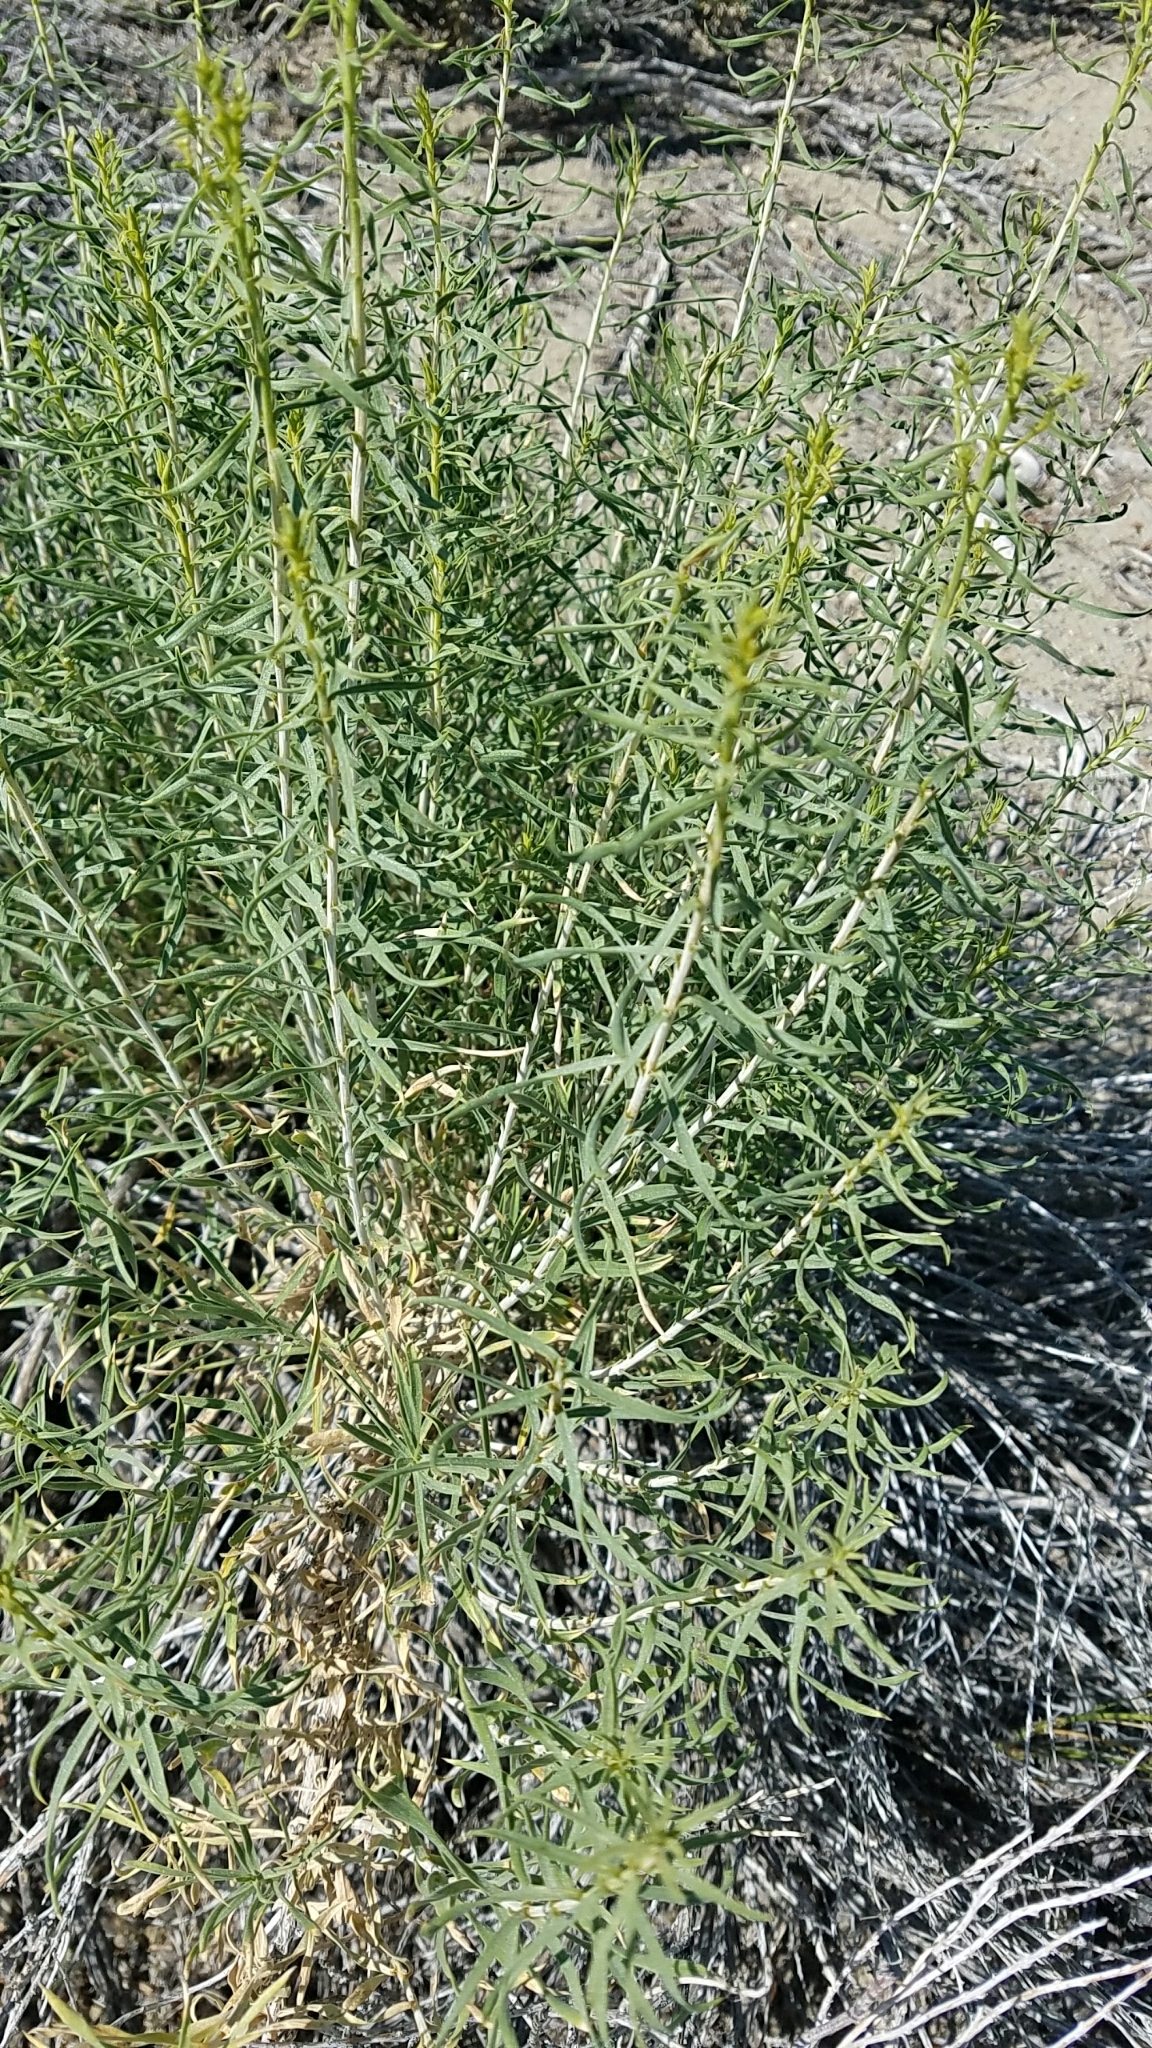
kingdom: Plantae
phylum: Tracheophyta
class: Magnoliopsida
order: Asterales
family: Asteraceae
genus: Chrysothamnus
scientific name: Chrysothamnus viscidiflorus
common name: Yellow rabbitbrush
